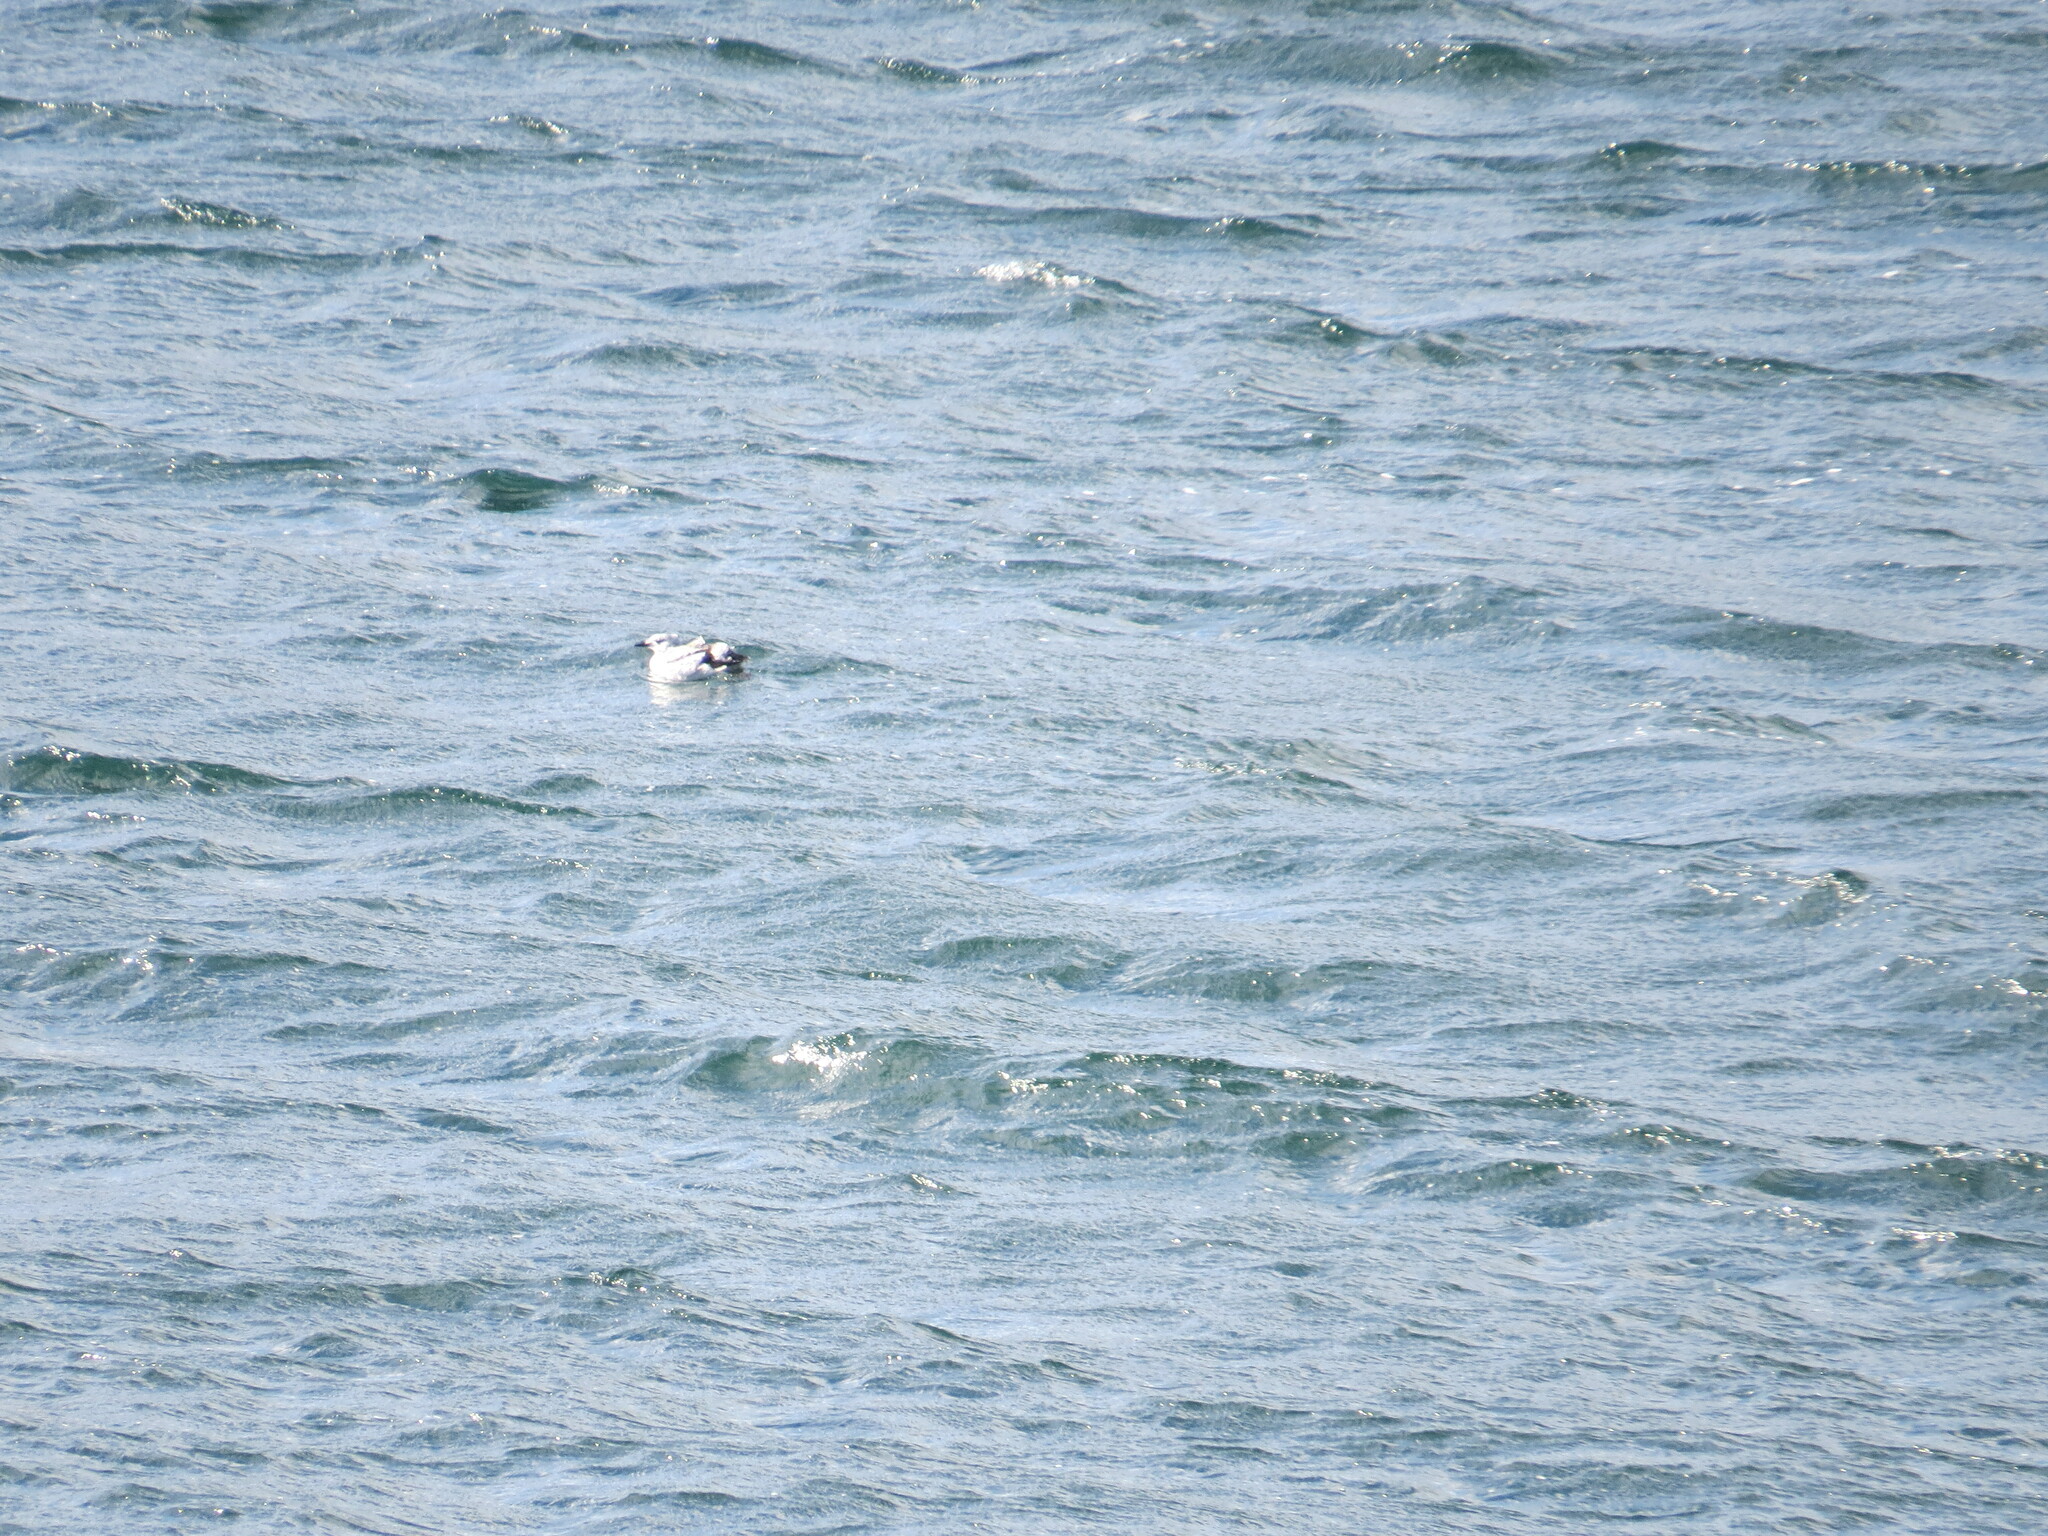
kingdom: Animalia
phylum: Chordata
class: Aves
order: Charadriiformes
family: Alcidae
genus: Cepphus
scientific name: Cepphus grylle
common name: Black guillemot
